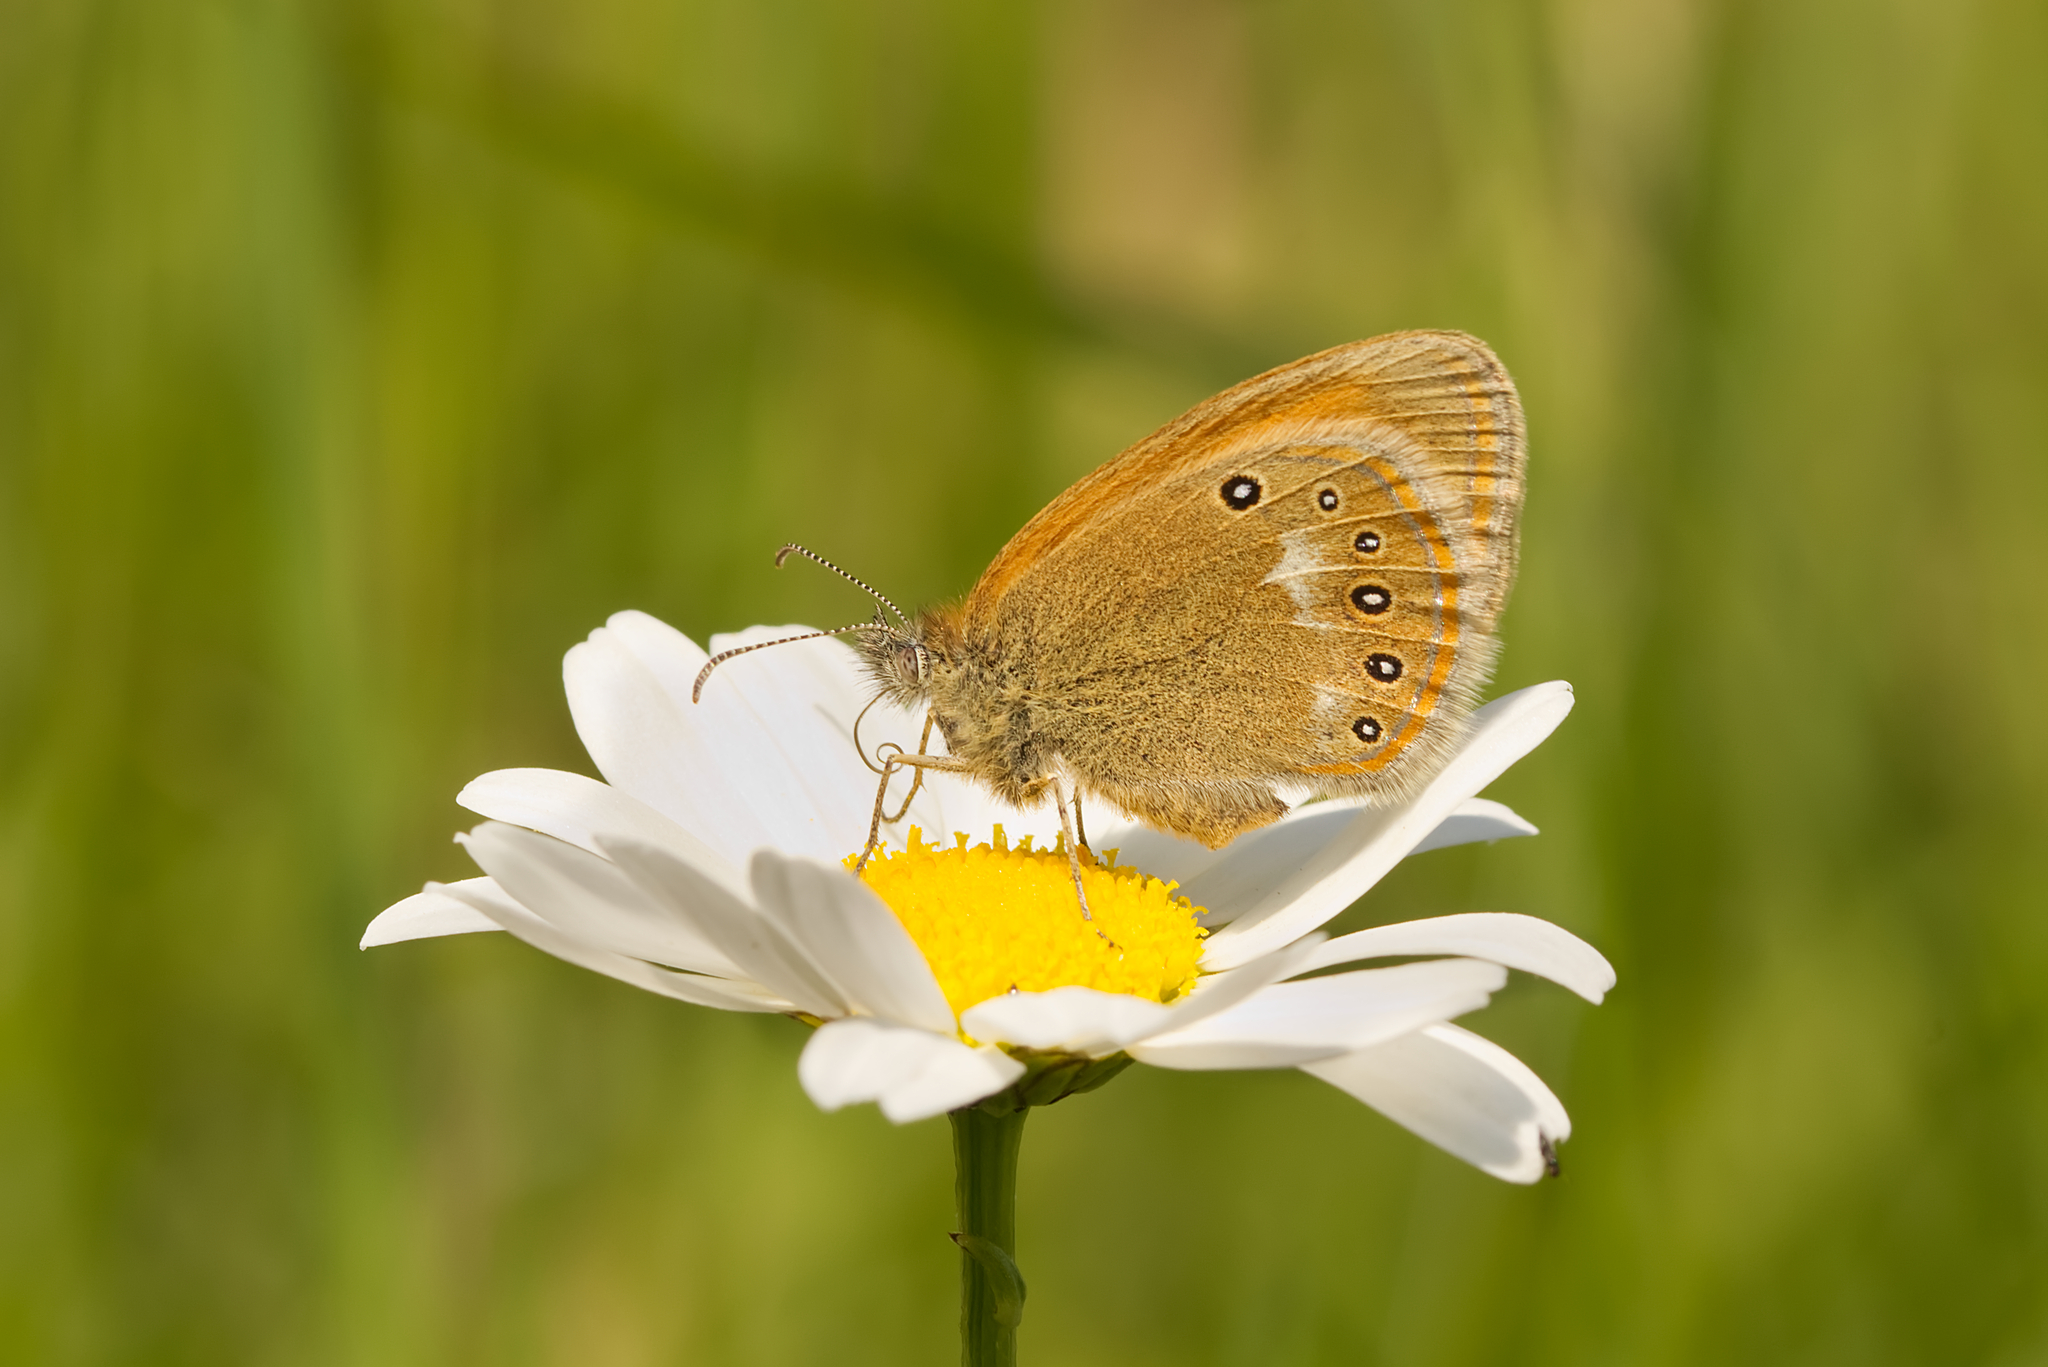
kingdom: Animalia
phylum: Arthropoda
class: Insecta
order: Lepidoptera
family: Nymphalidae
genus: Coenonympha
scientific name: Coenonympha iphis
